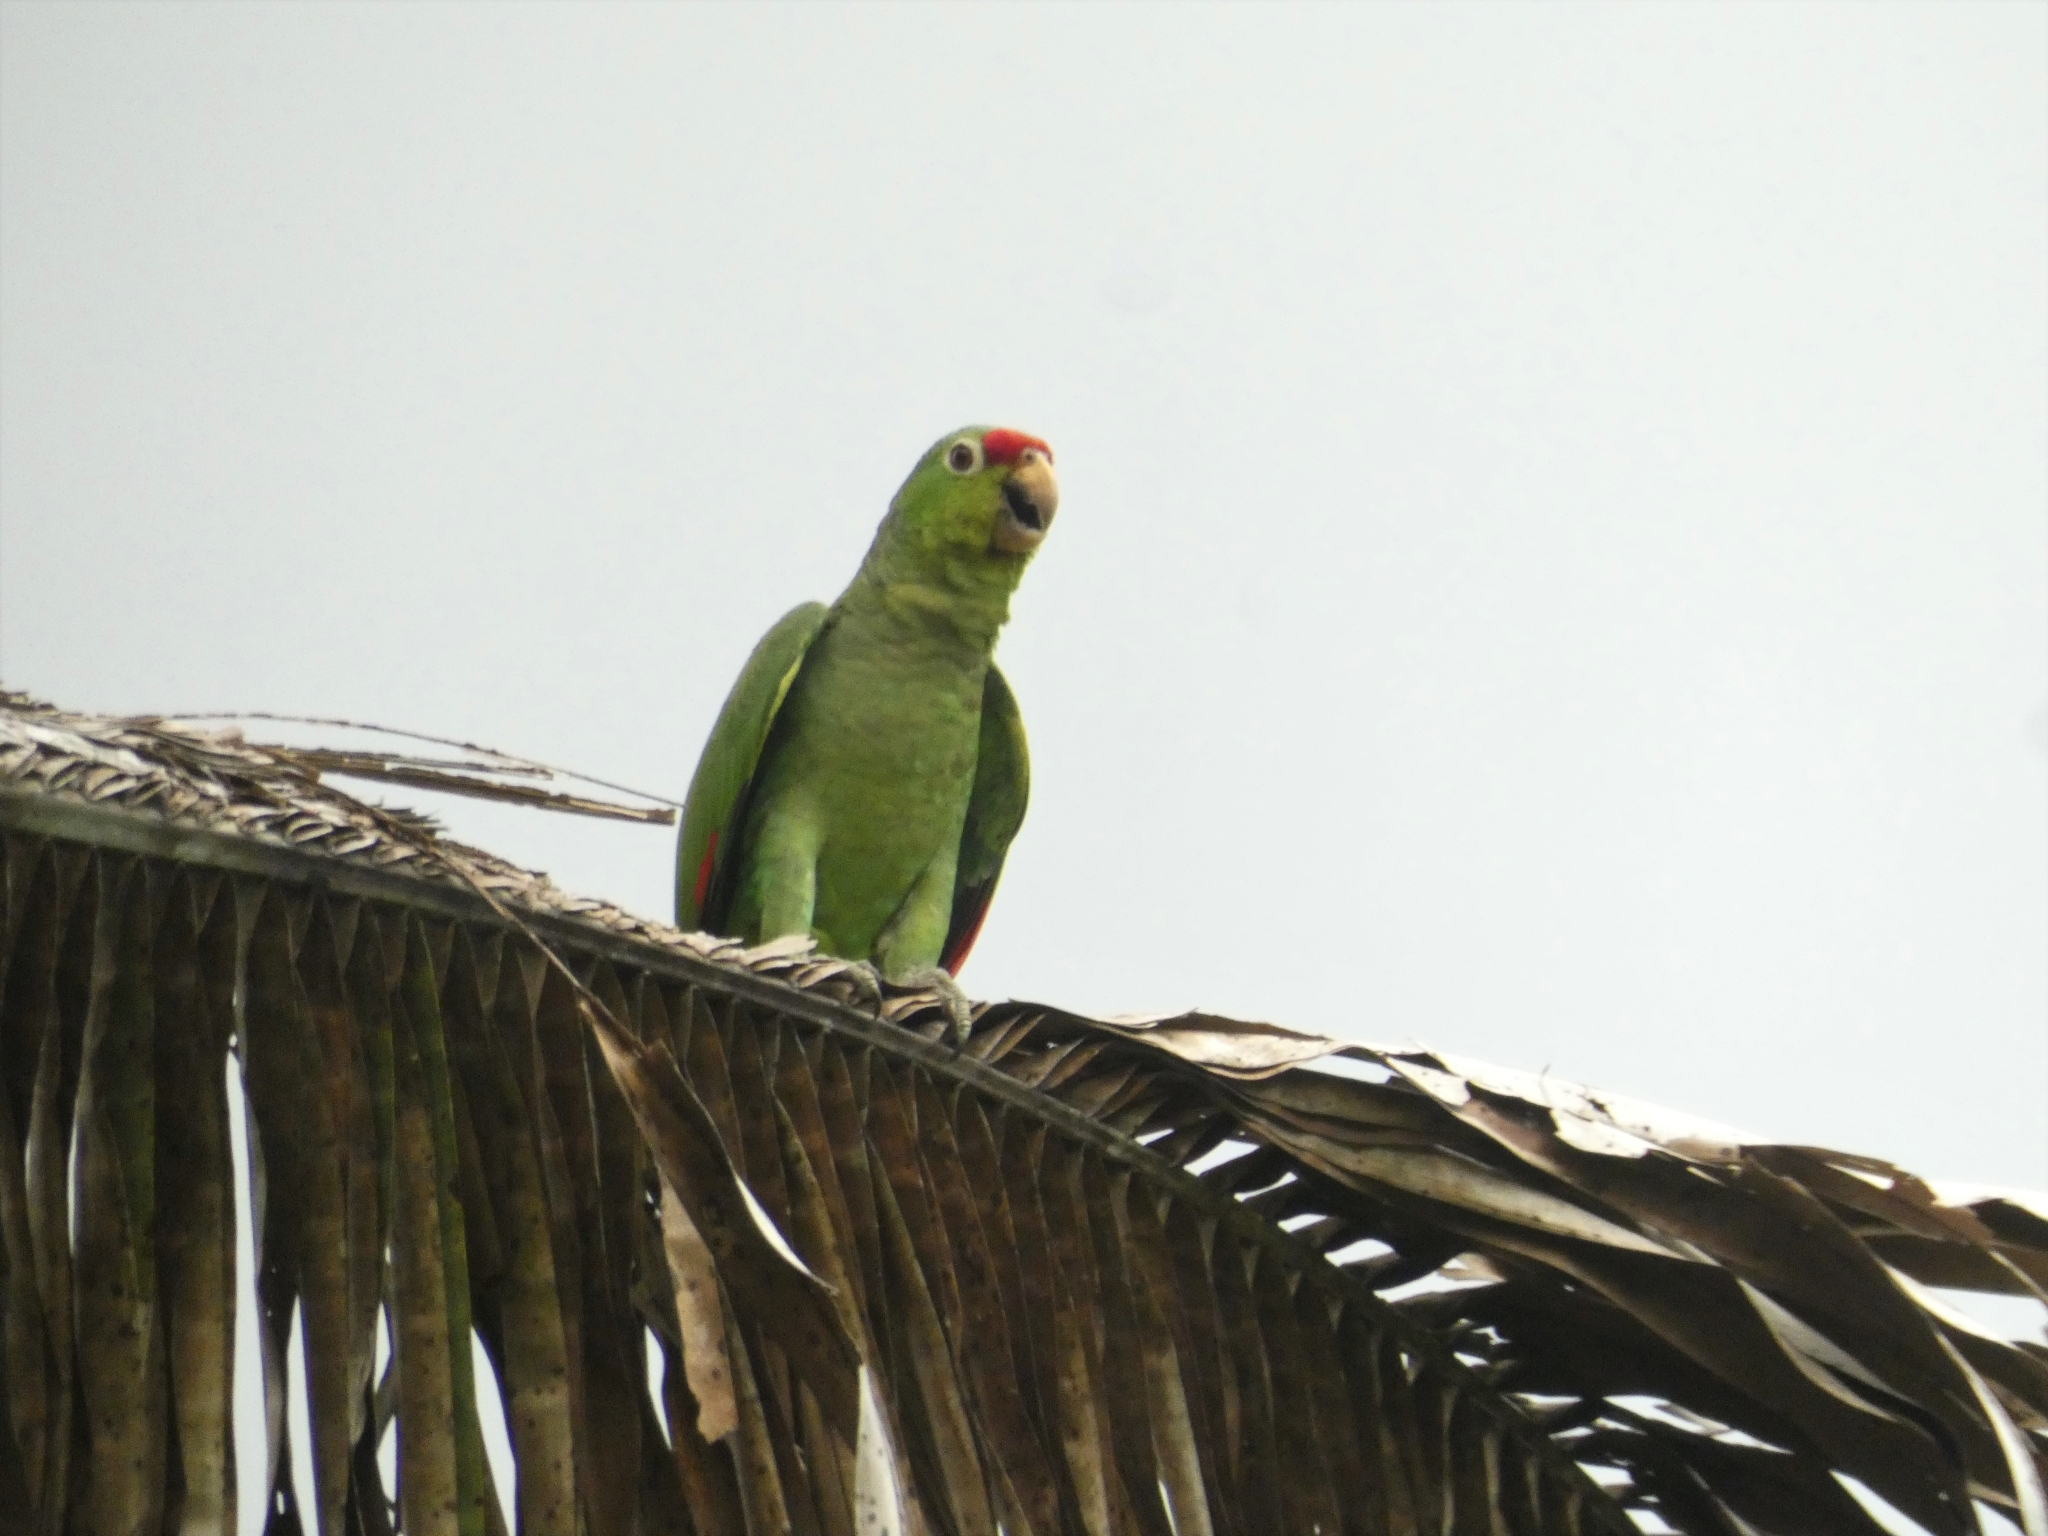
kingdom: Animalia
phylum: Chordata
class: Aves
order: Psittaciformes
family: Psittacidae
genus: Amazona
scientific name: Amazona autumnalis
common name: Red-lored amazon
